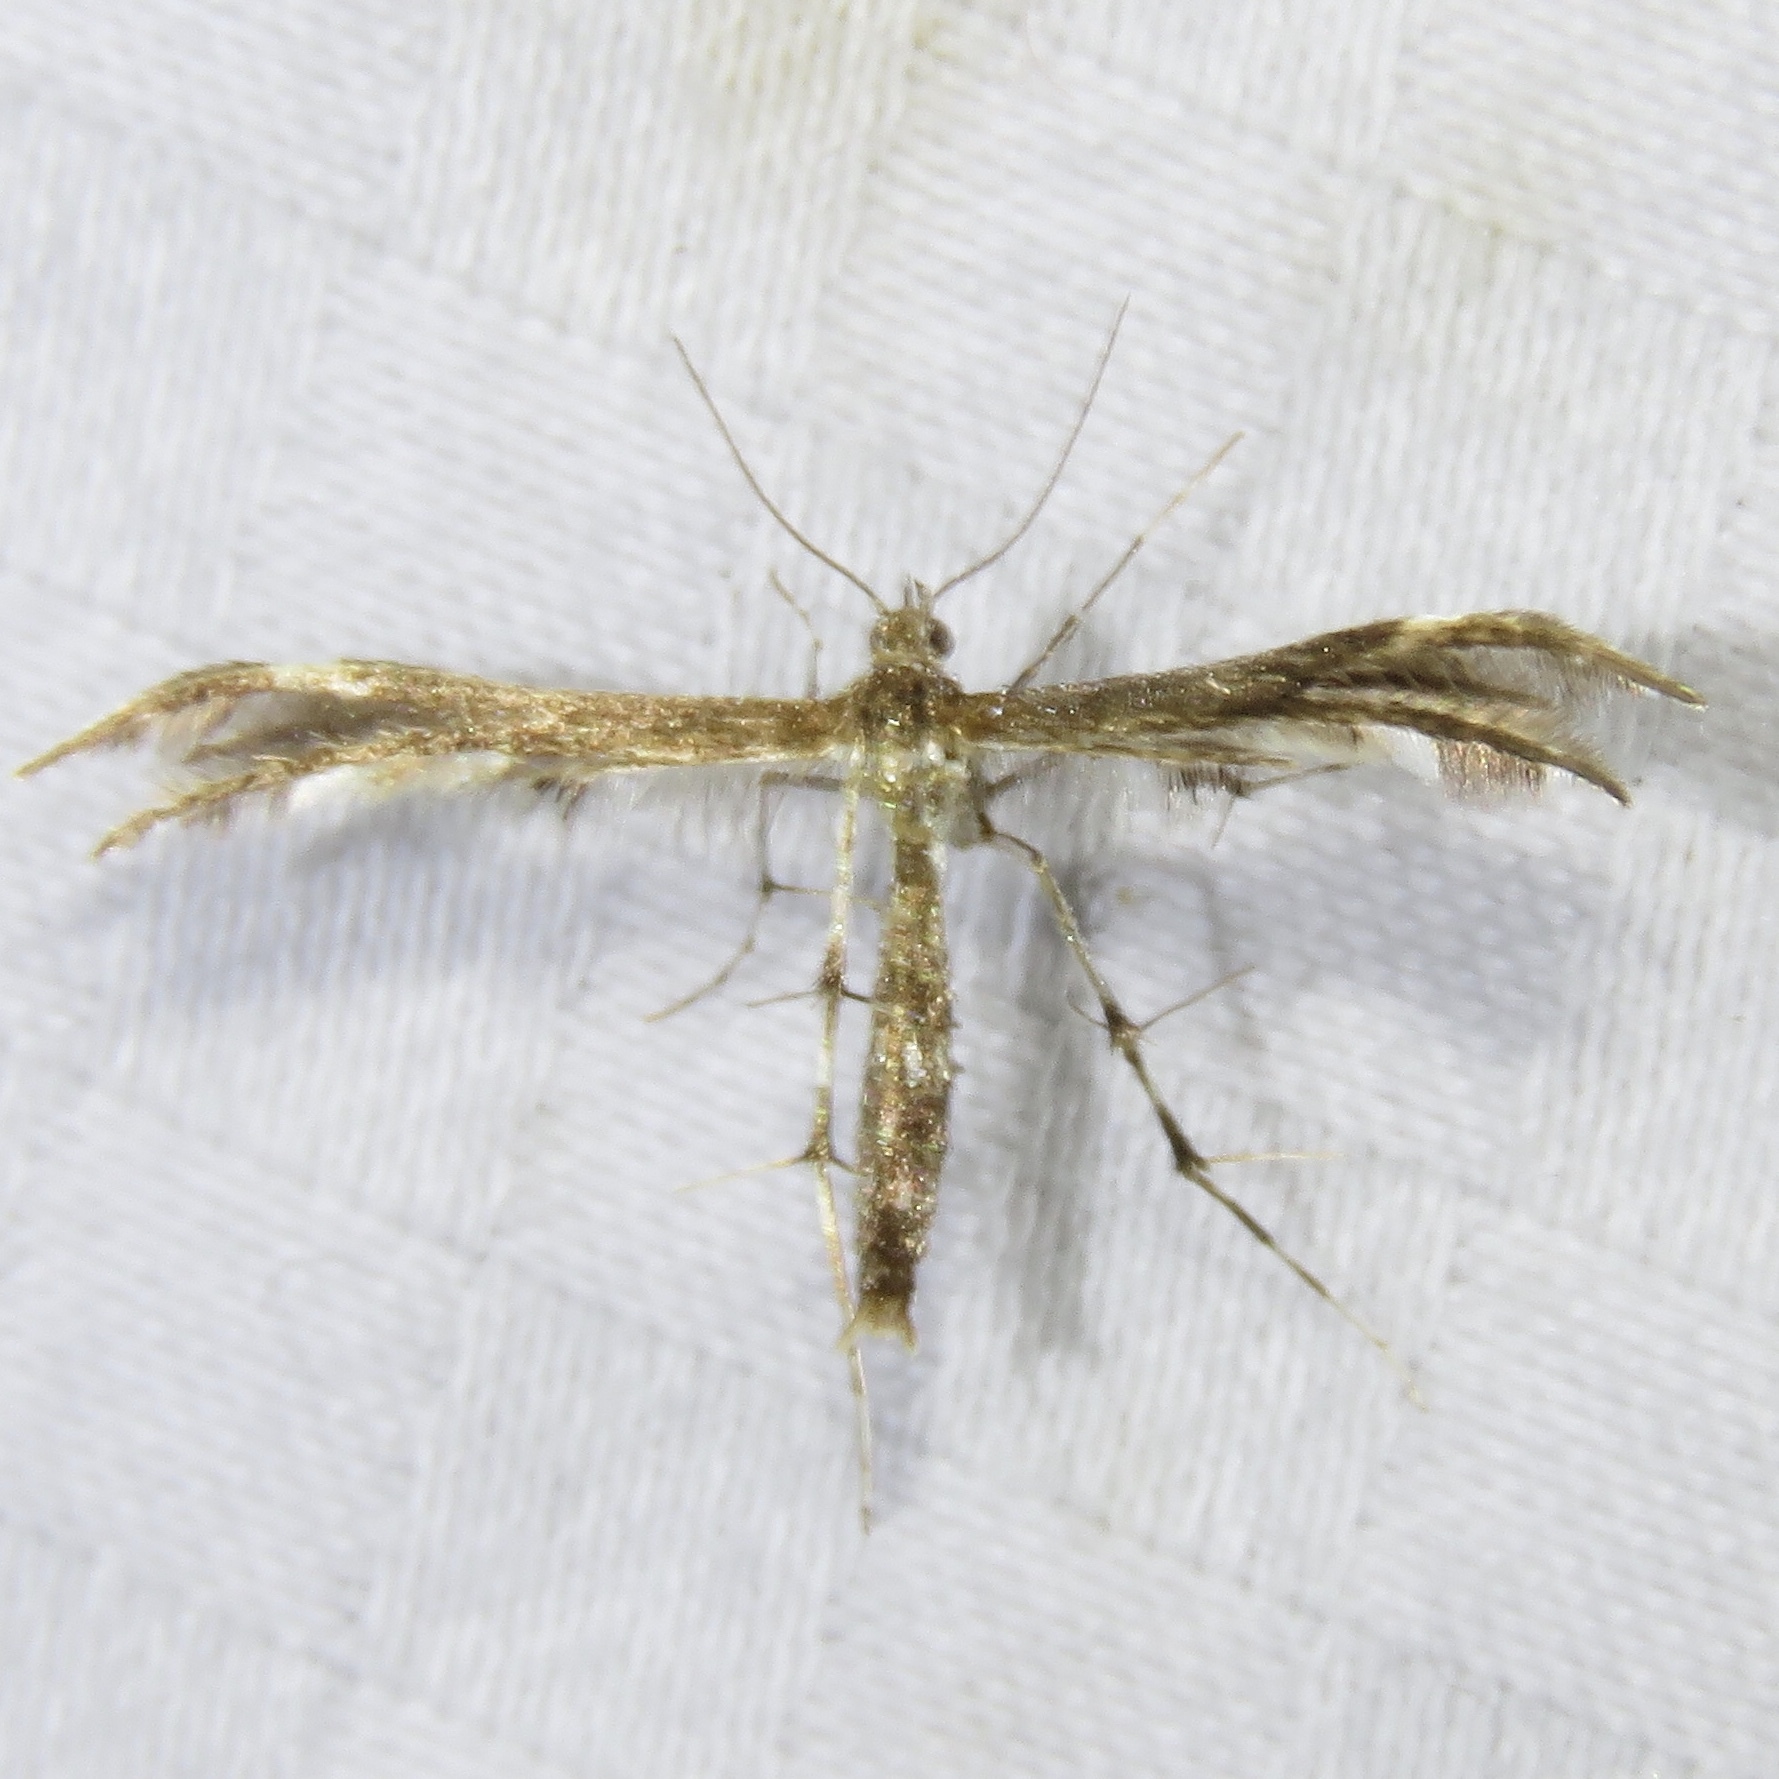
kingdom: Animalia
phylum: Arthropoda
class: Insecta
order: Lepidoptera
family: Pterophoridae
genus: Dejongia
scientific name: Dejongia lobidactylus
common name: Lobed plume moth
